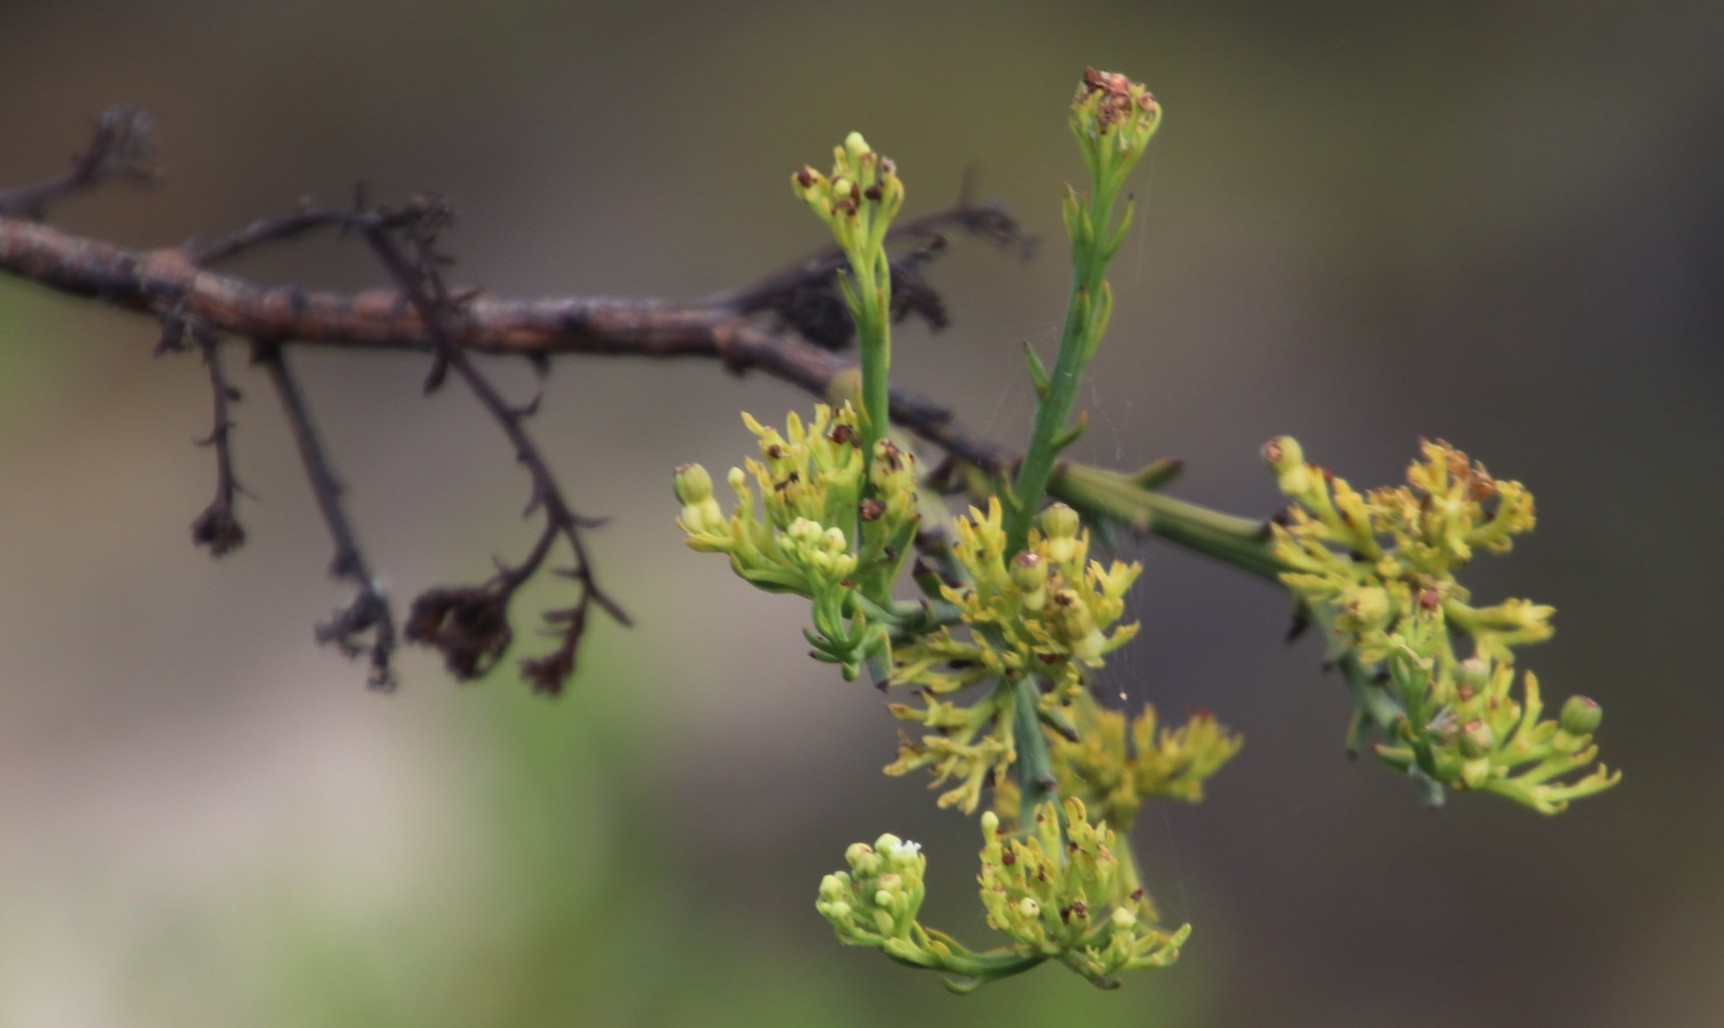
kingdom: Plantae
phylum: Tracheophyta
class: Magnoliopsida
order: Santalales
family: Thesiaceae
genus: Thesium
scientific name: Thesium strictum
